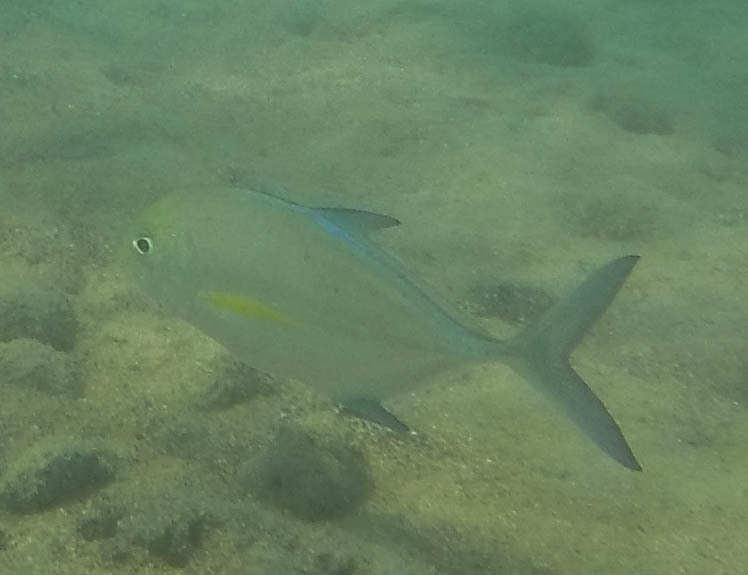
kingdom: Animalia
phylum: Chordata
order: Perciformes
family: Carangidae
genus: Caranx
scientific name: Caranx melampygus
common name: Bluefin trevally
